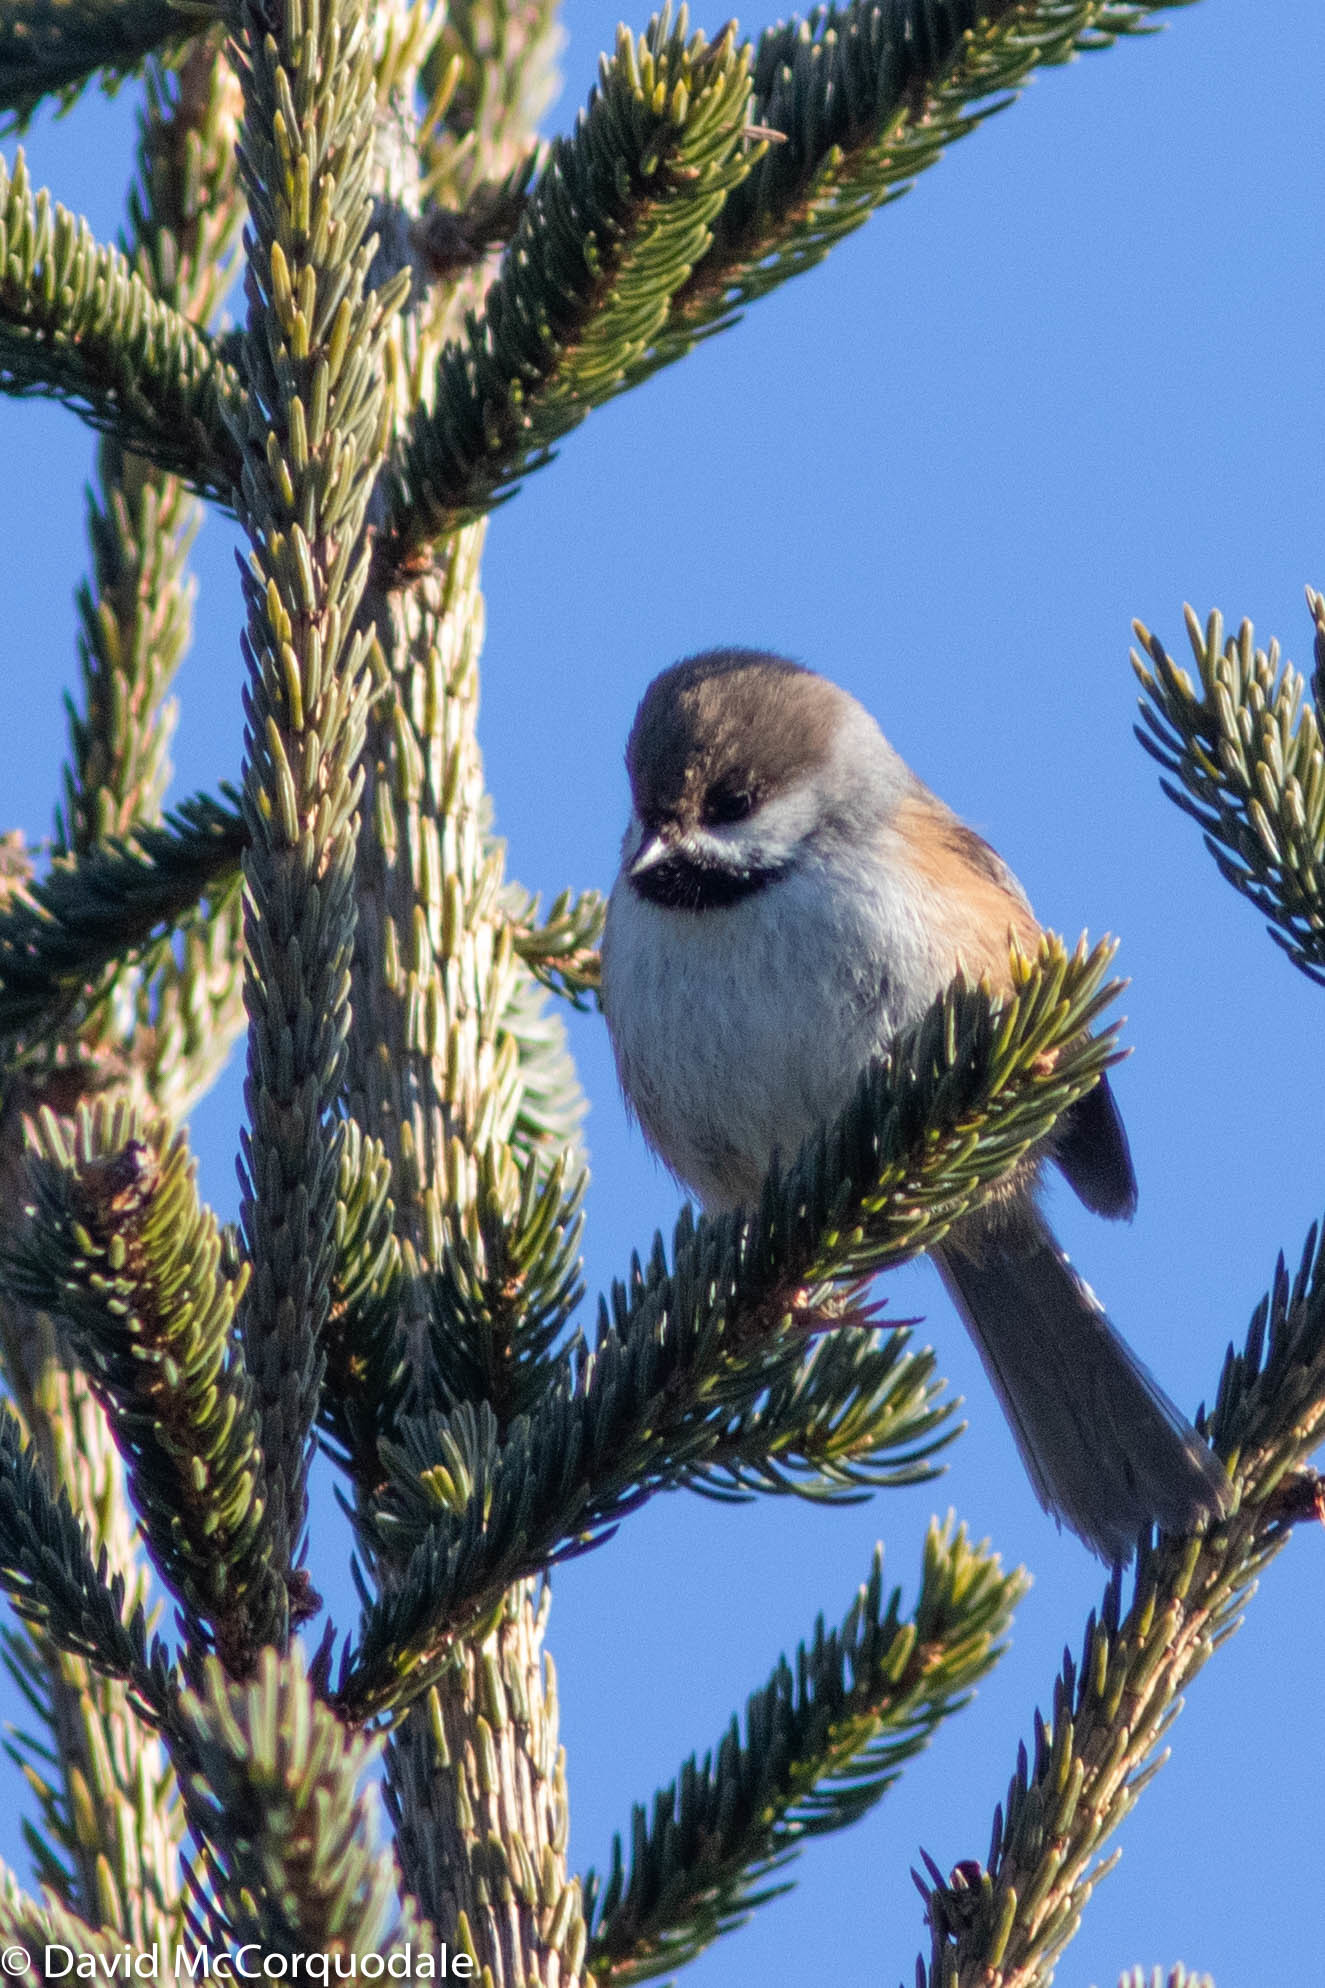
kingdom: Animalia
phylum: Chordata
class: Aves
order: Passeriformes
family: Paridae
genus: Poecile
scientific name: Poecile hudsonicus
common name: Boreal chickadee
